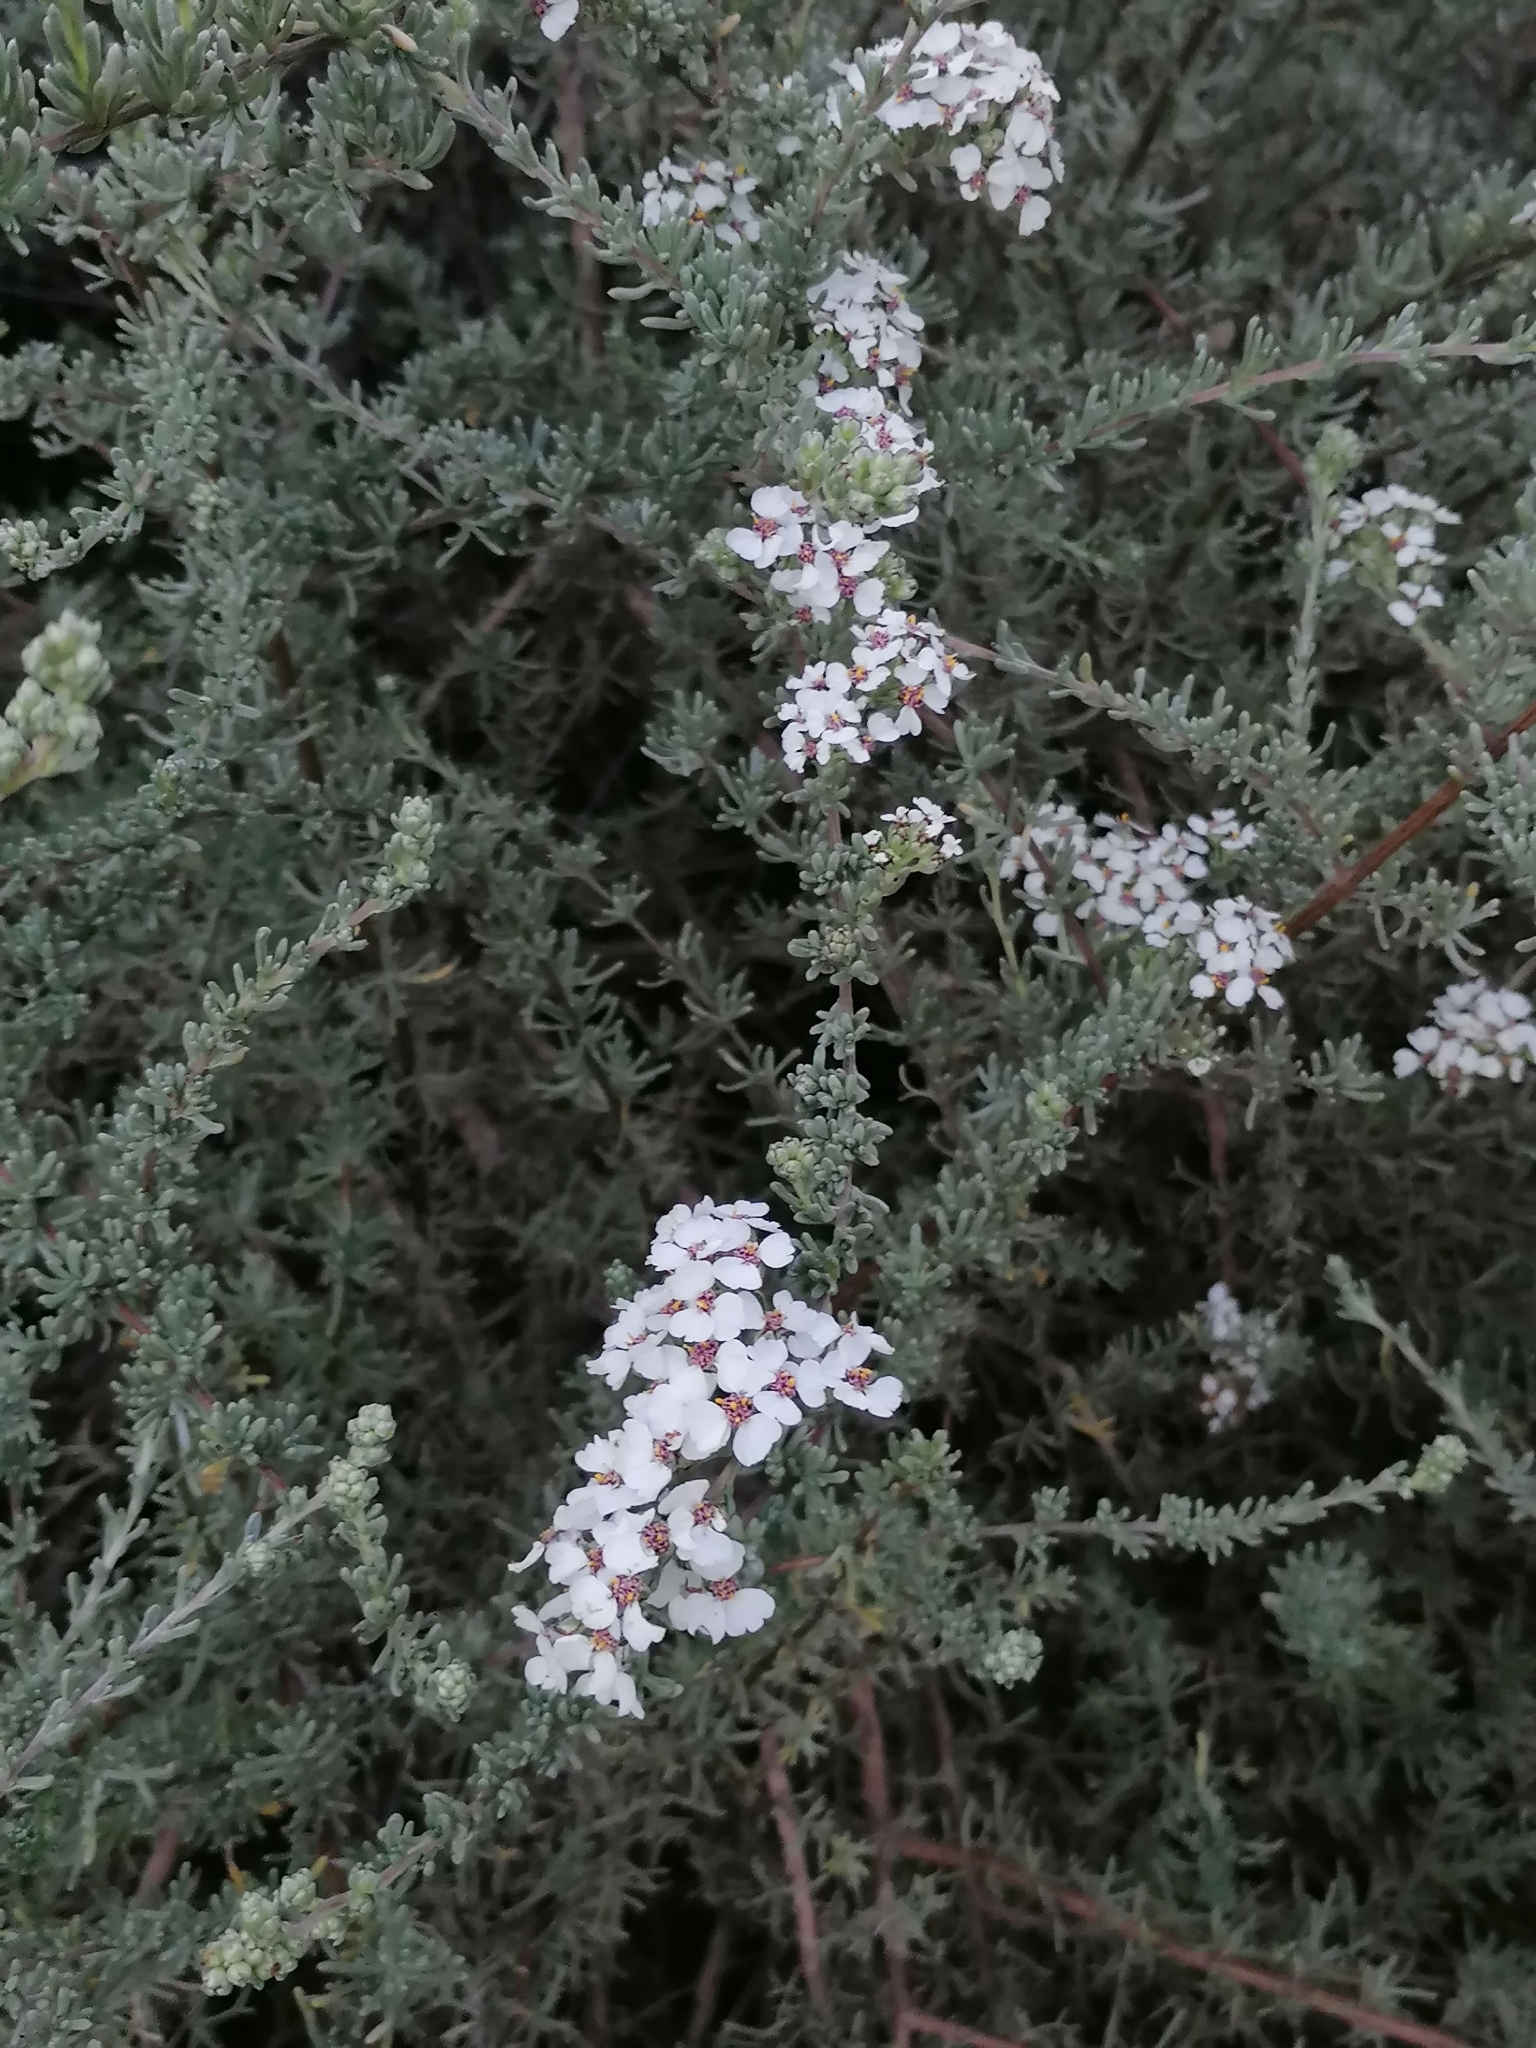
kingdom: Plantae
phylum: Tracheophyta
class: Magnoliopsida
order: Asterales
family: Asteraceae
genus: Eriocephalus
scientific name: Eriocephalus africanus
